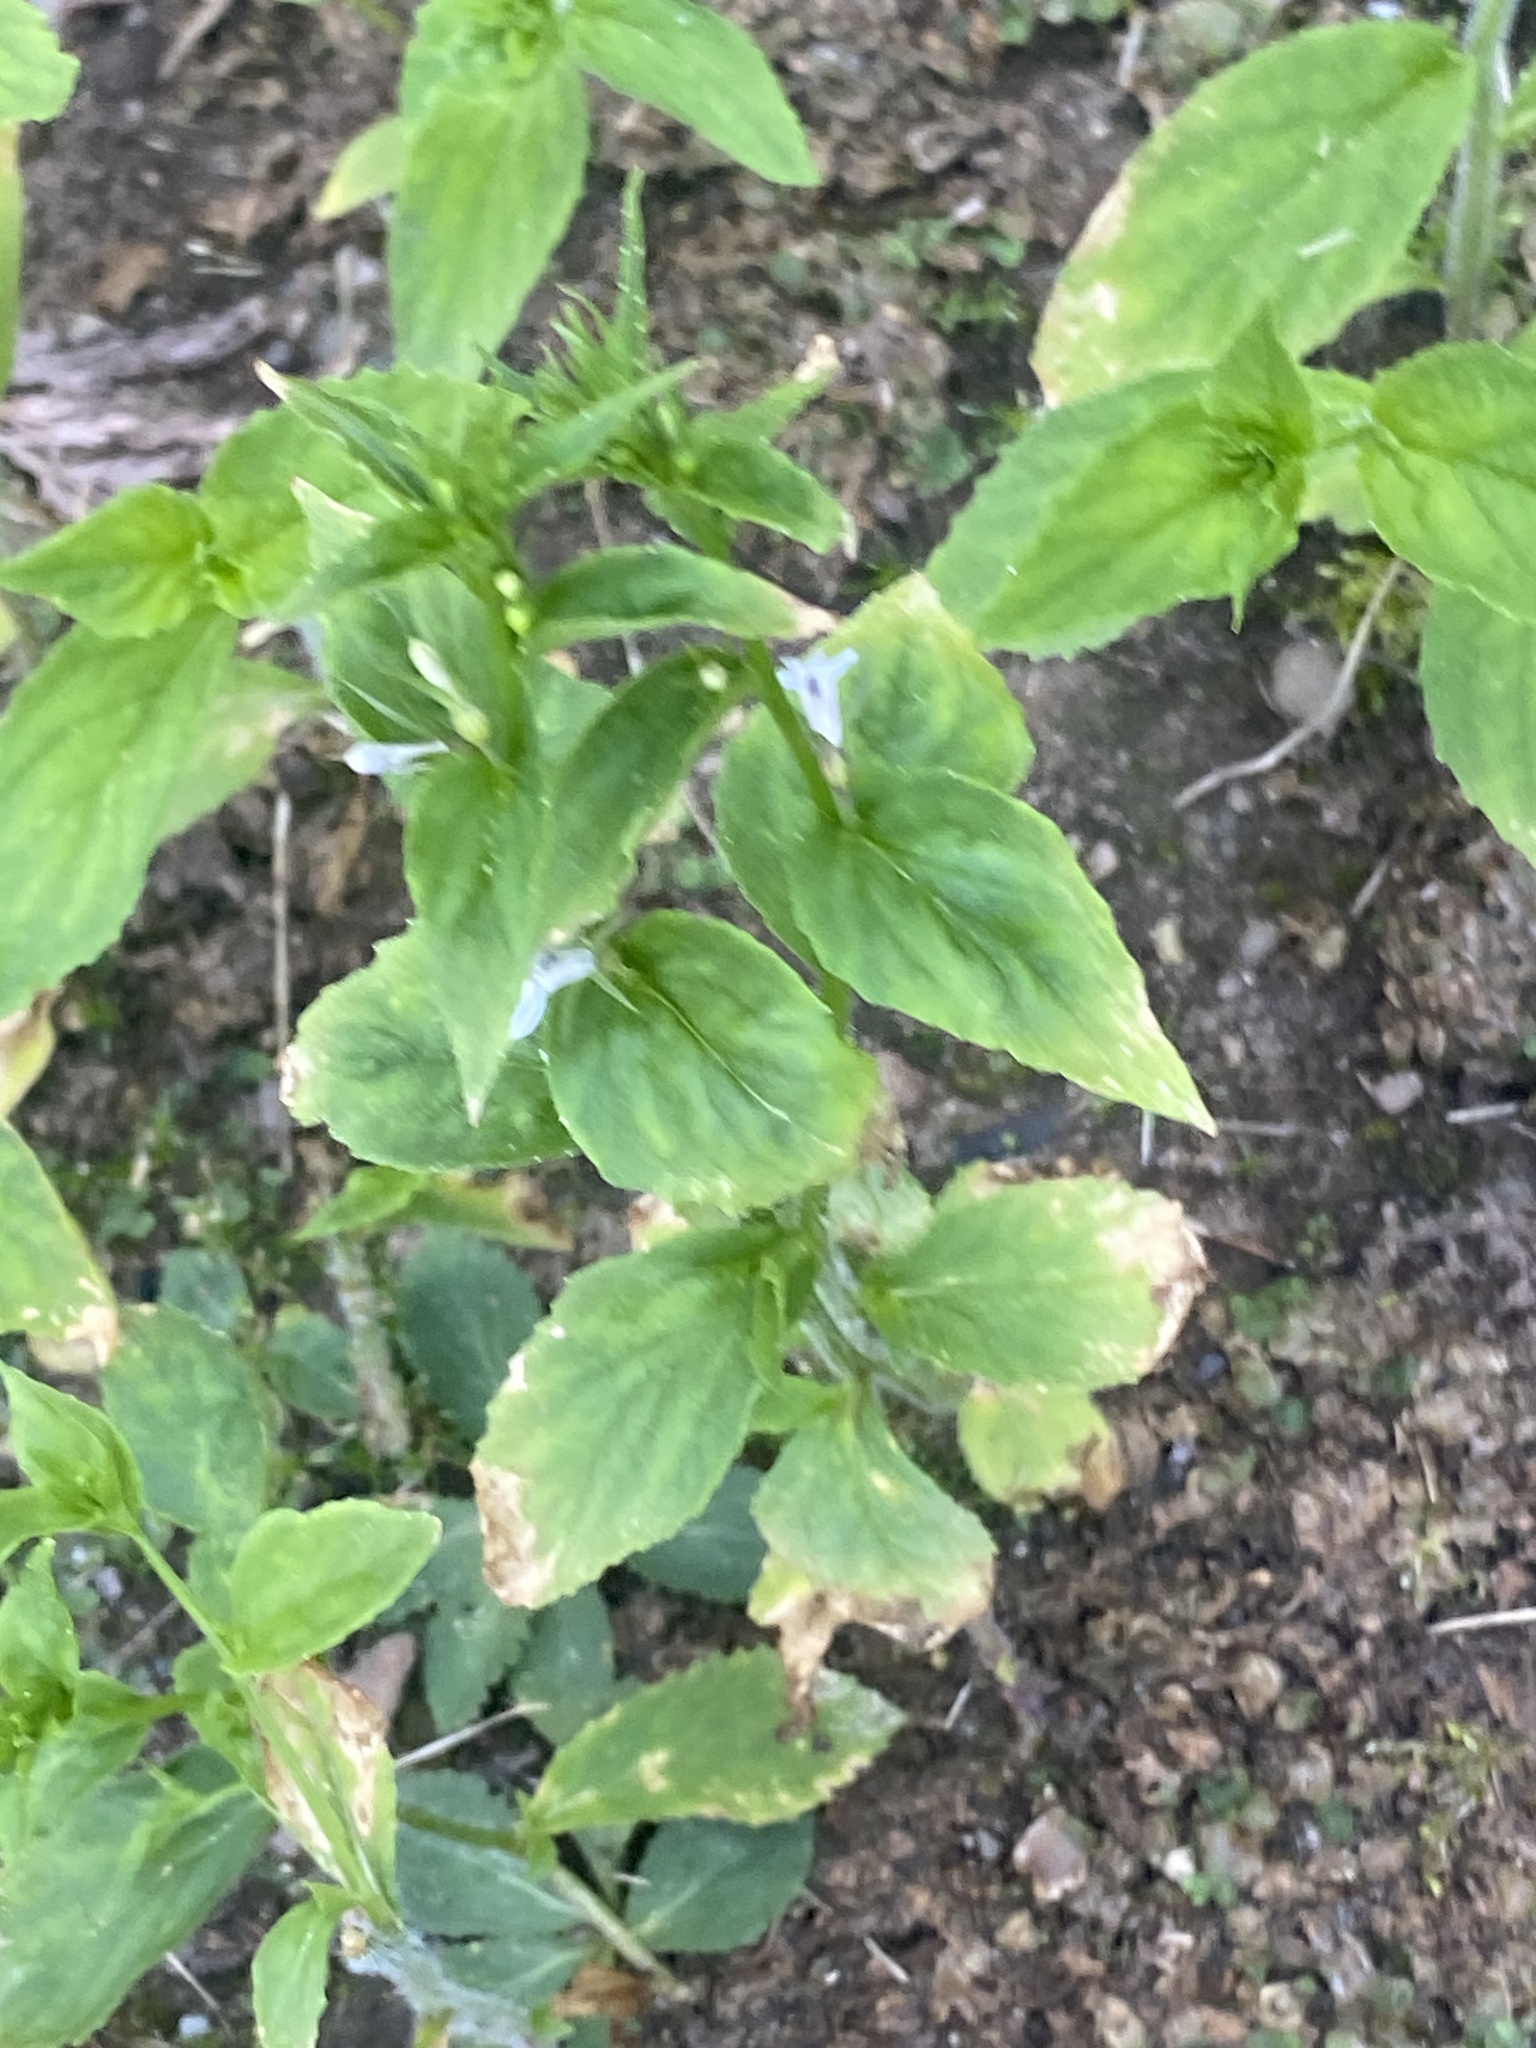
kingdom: Plantae
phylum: Tracheophyta
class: Magnoliopsida
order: Asterales
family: Campanulaceae
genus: Lobelia
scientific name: Lobelia inflata
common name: Indian tobacco
